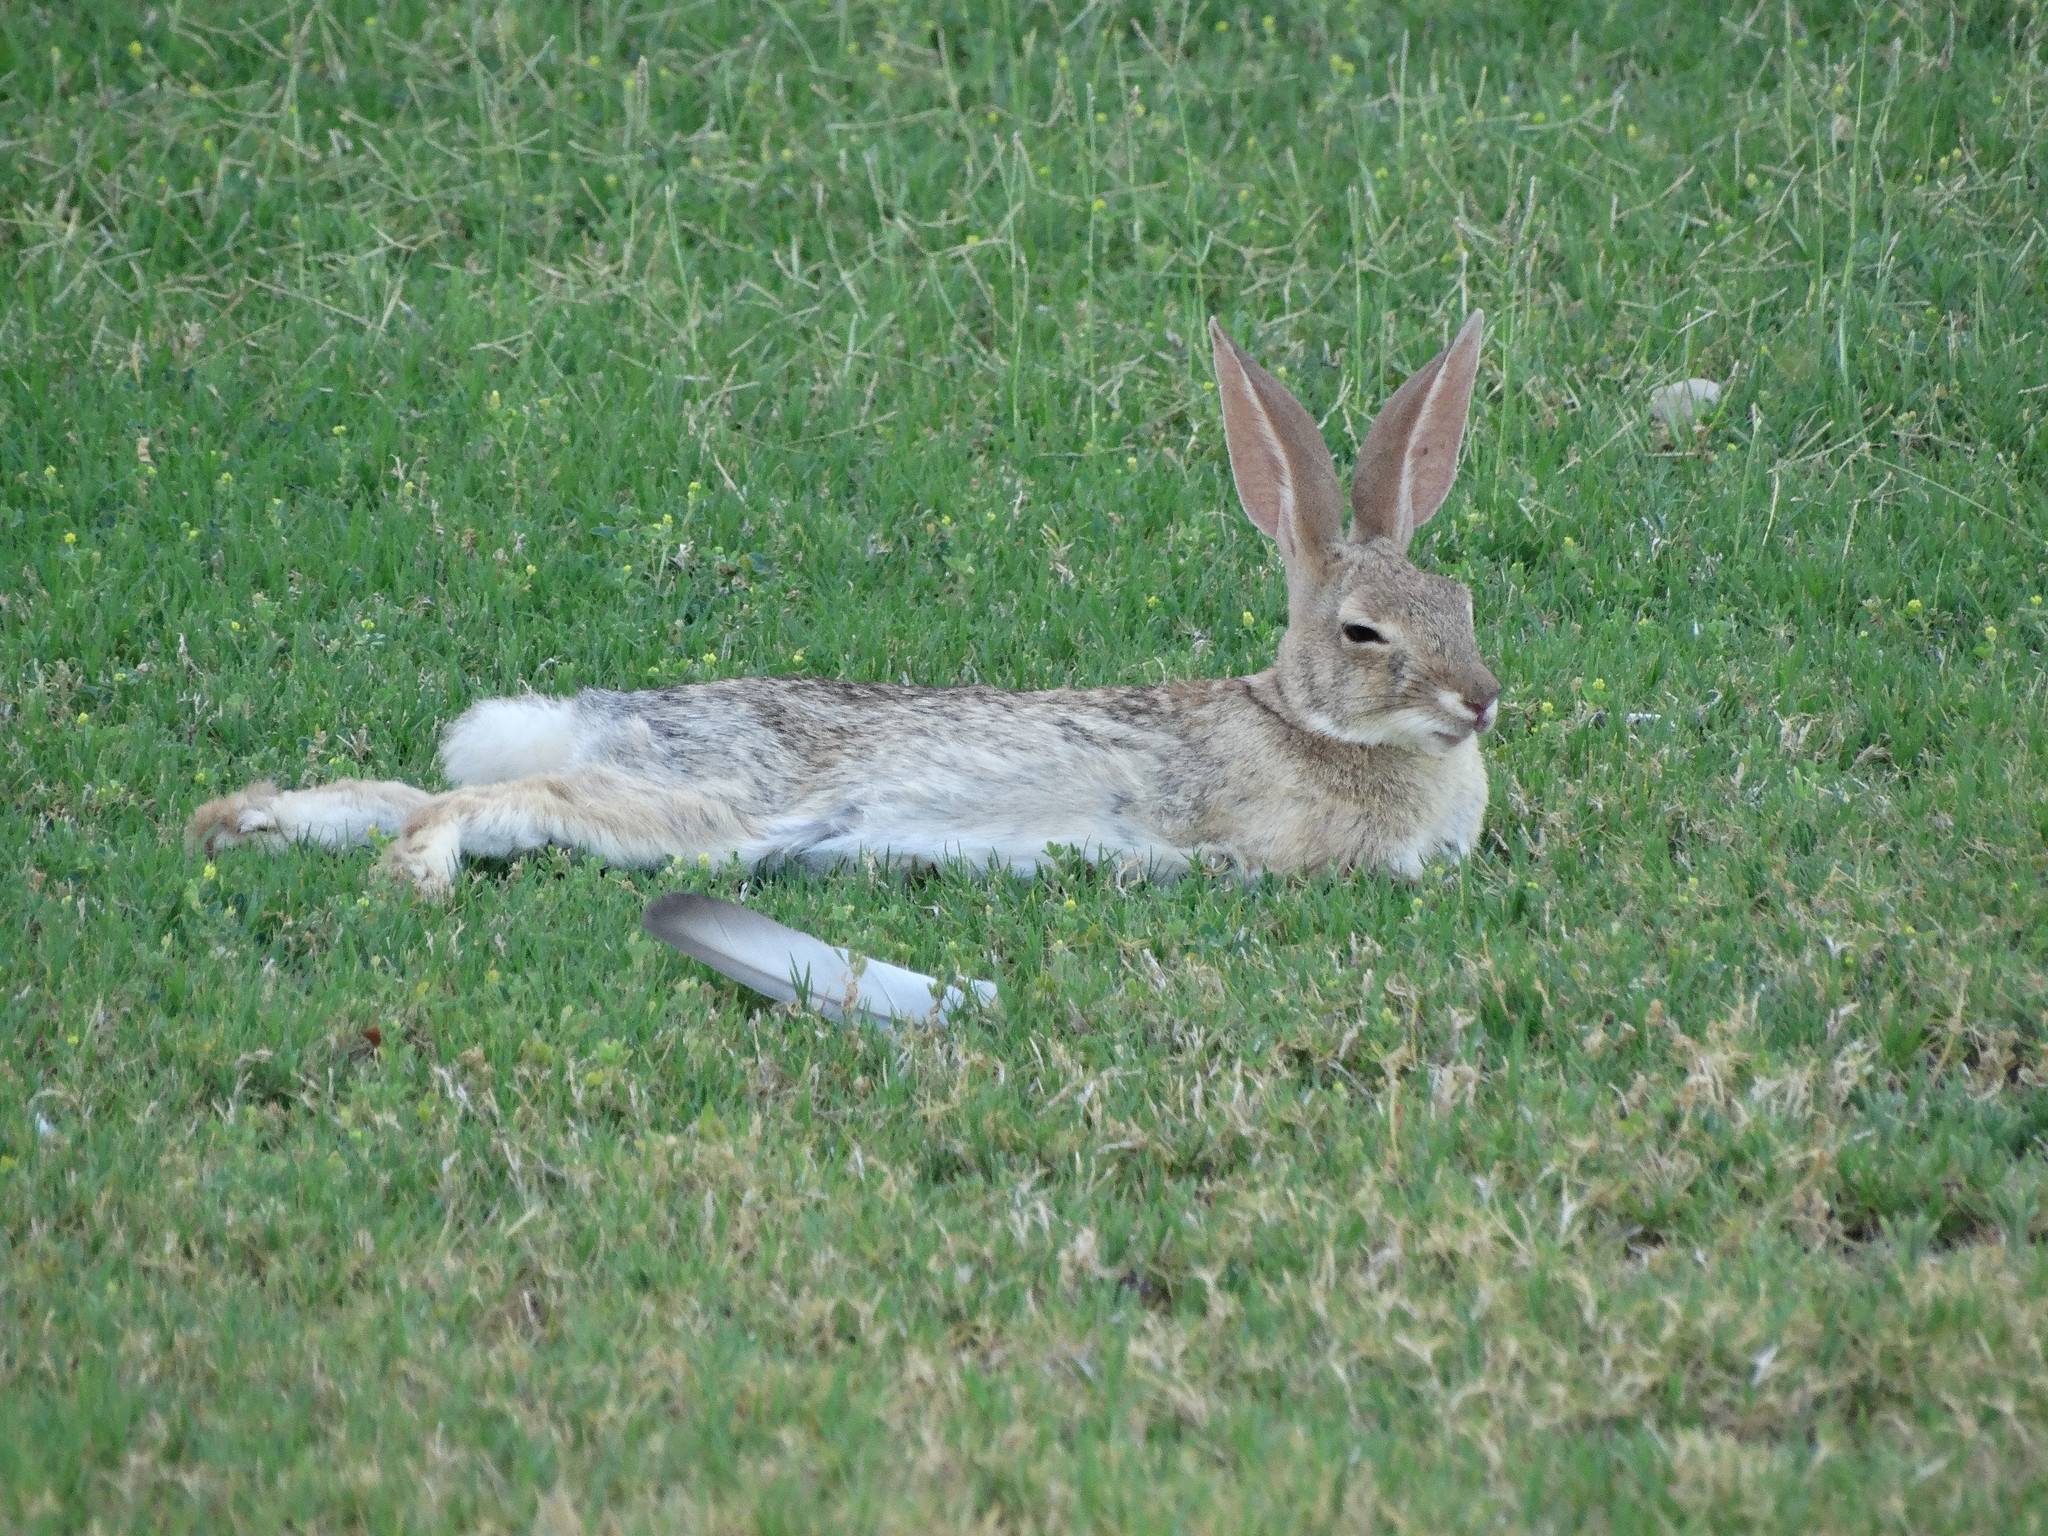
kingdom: Animalia
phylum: Chordata
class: Mammalia
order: Lagomorpha
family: Leporidae
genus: Sylvilagus
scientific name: Sylvilagus audubonii
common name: Desert cottontail
